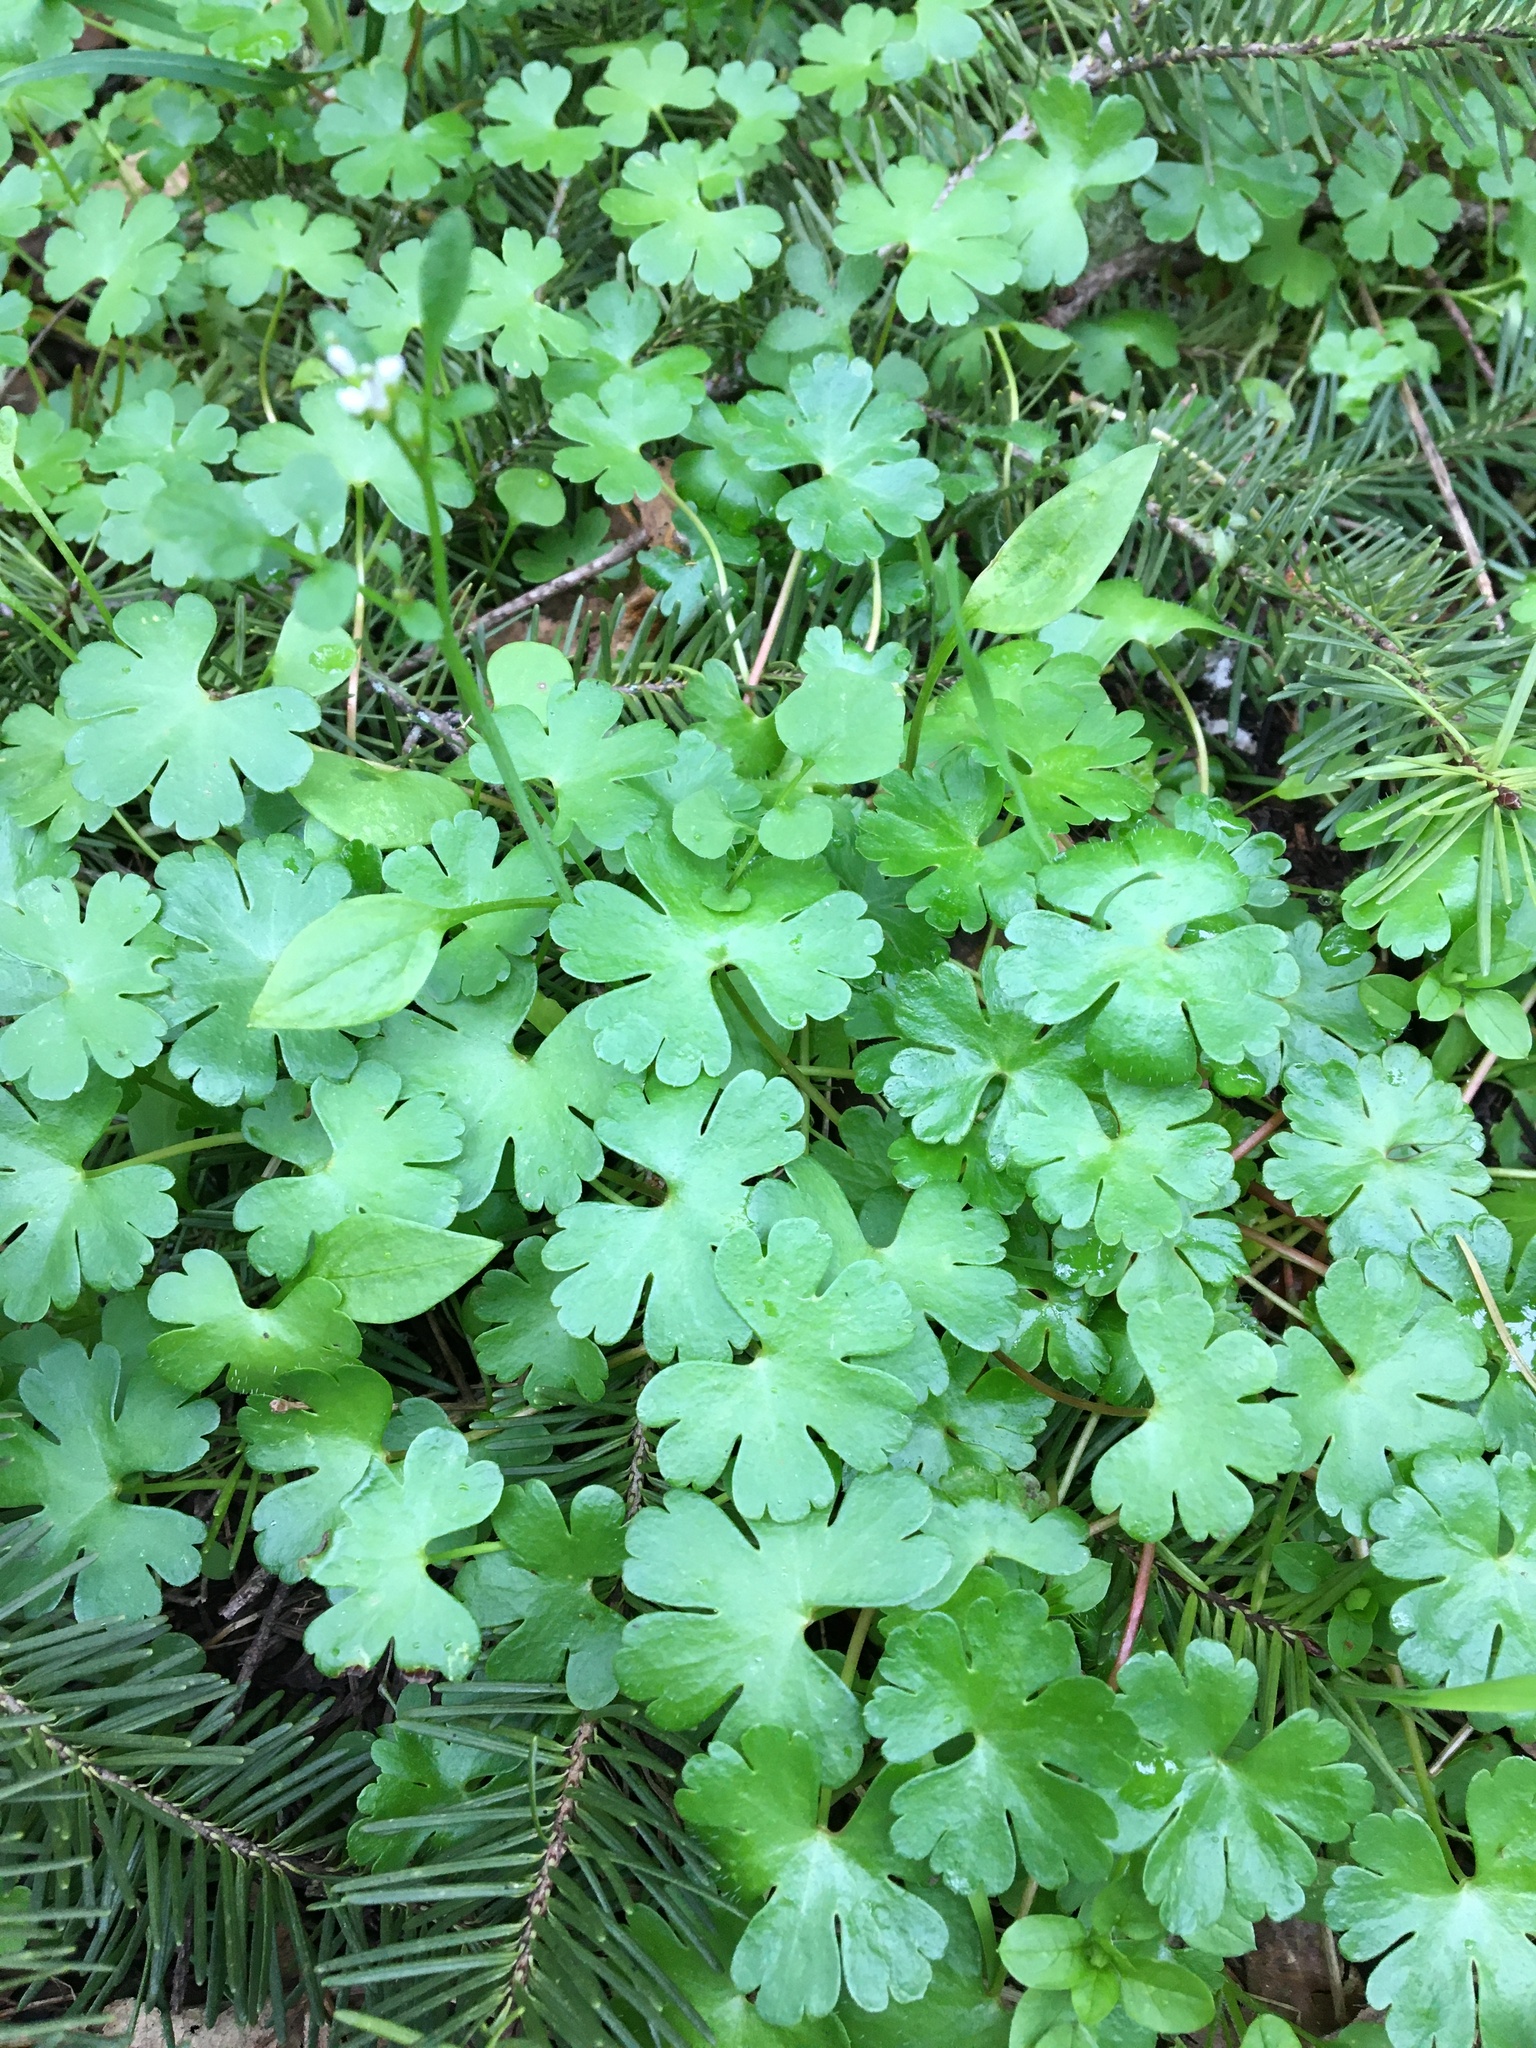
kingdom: Plantae
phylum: Tracheophyta
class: Magnoliopsida
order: Geraniales
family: Geraniaceae
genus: Geranium
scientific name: Geranium lucidum
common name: Shining crane's-bill
